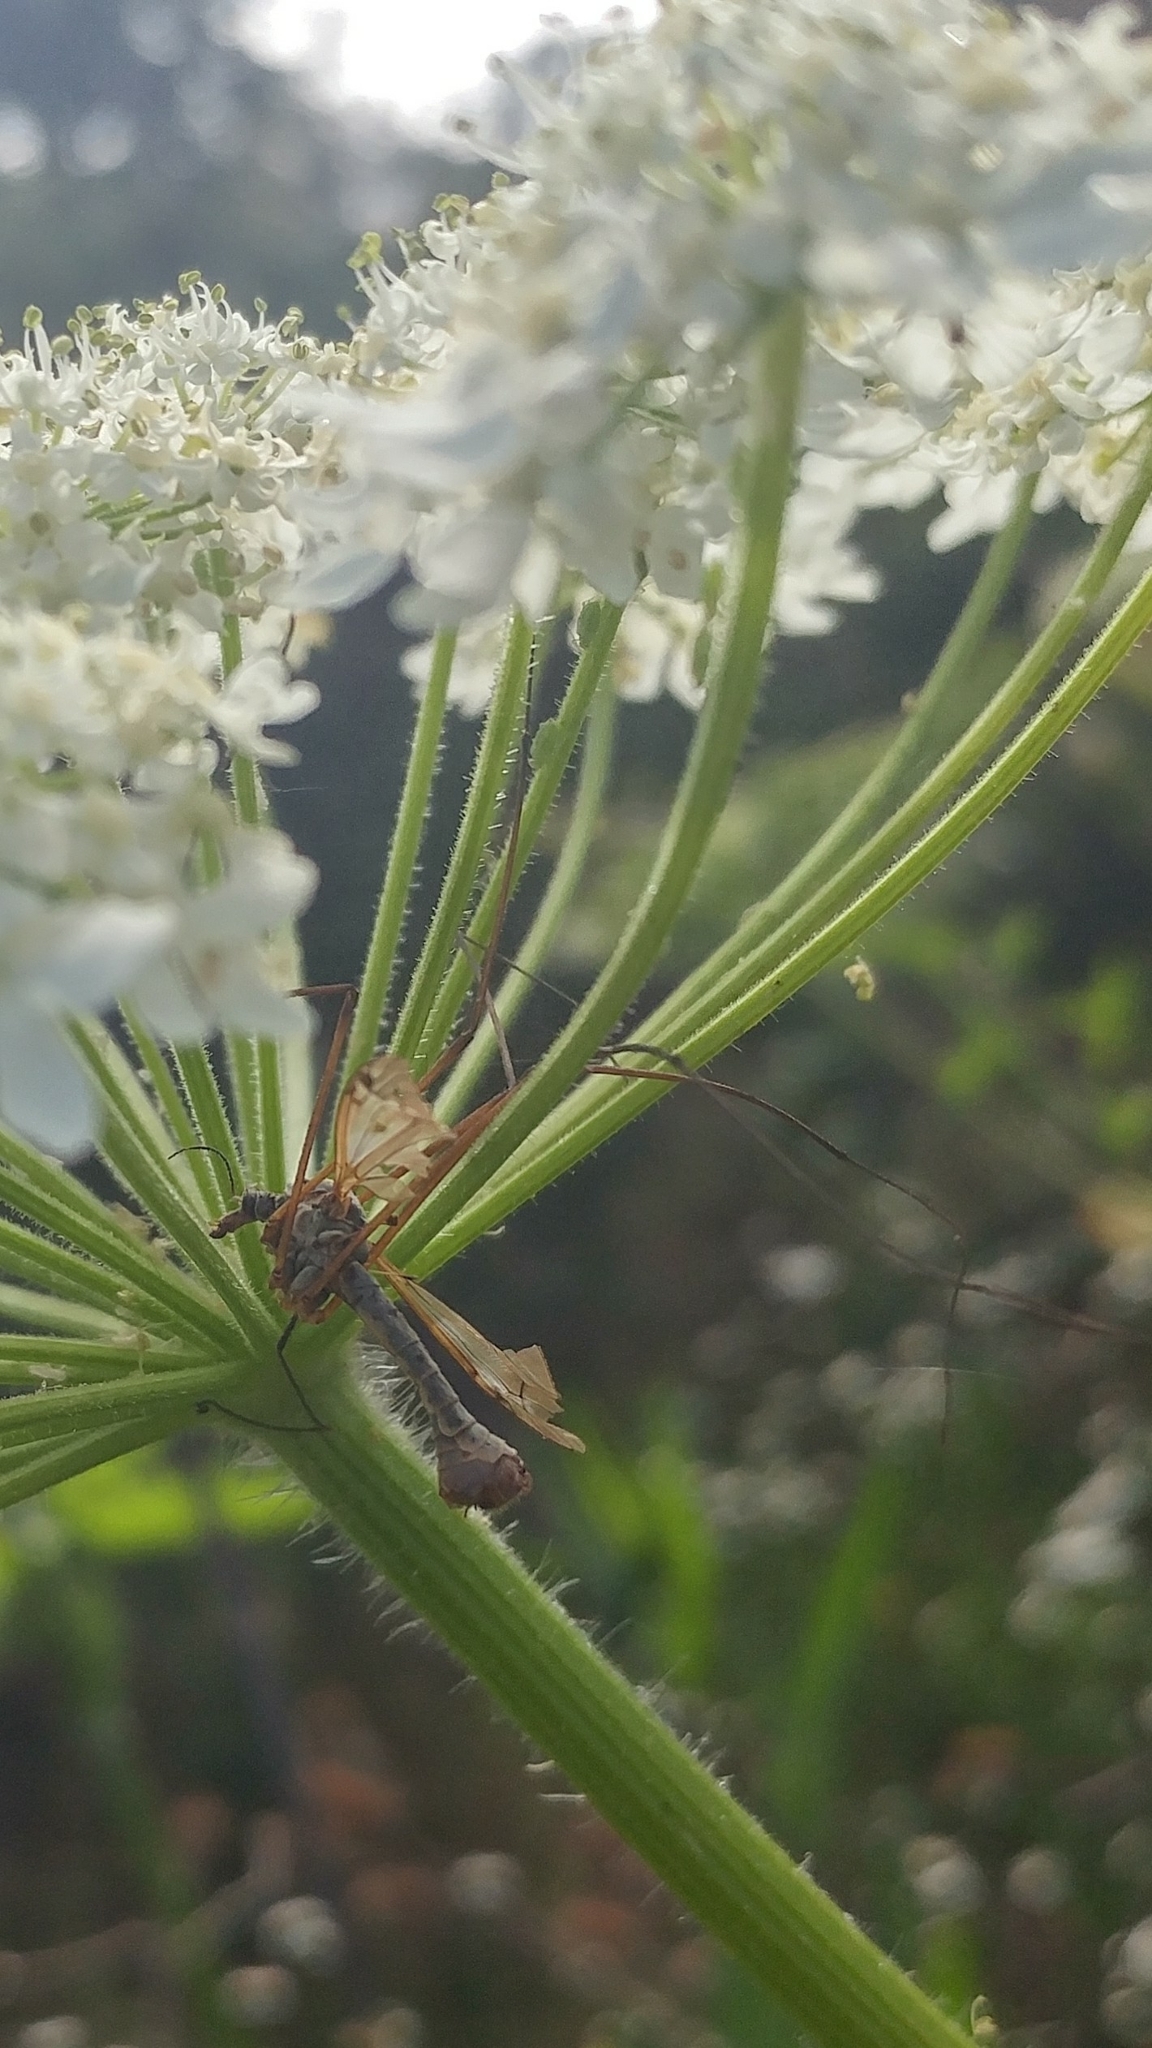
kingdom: Plantae
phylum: Tracheophyta
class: Magnoliopsida
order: Apiales
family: Apiaceae
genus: Heracleum
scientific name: Heracleum maximum
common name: American cow parsnip
